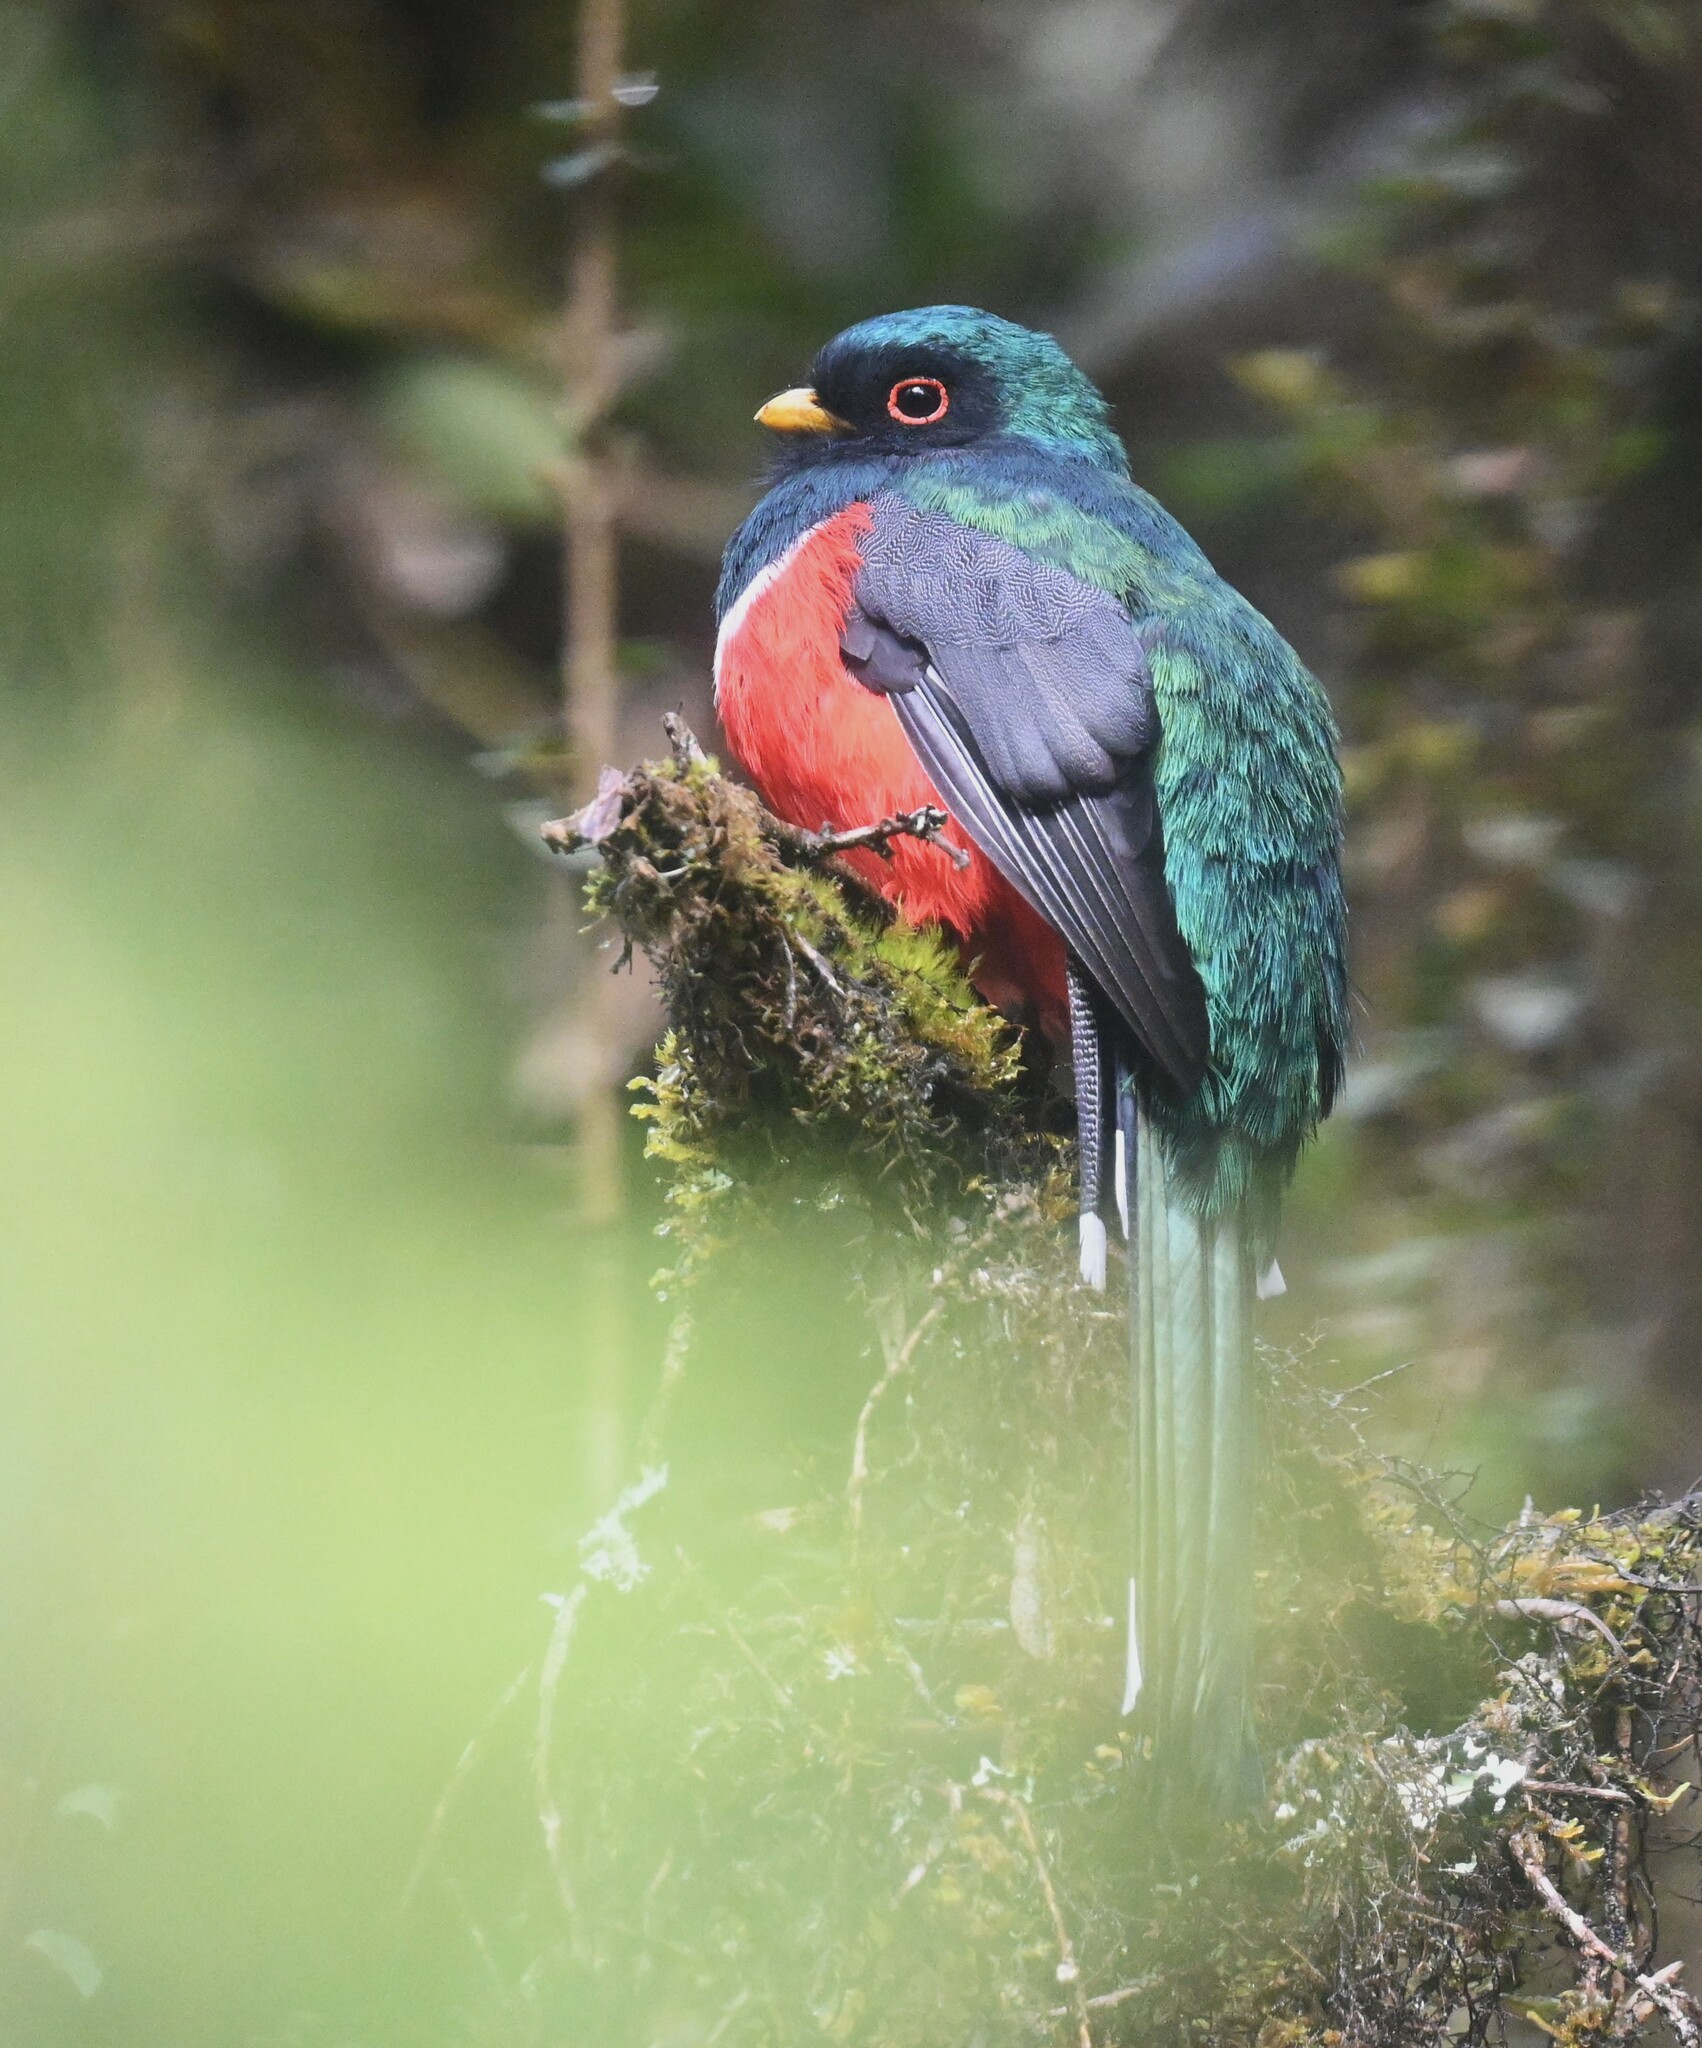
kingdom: Animalia
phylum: Chordata
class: Aves
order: Trogoniformes
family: Trogonidae
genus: Trogon
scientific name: Trogon personatus
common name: Masked trogon
